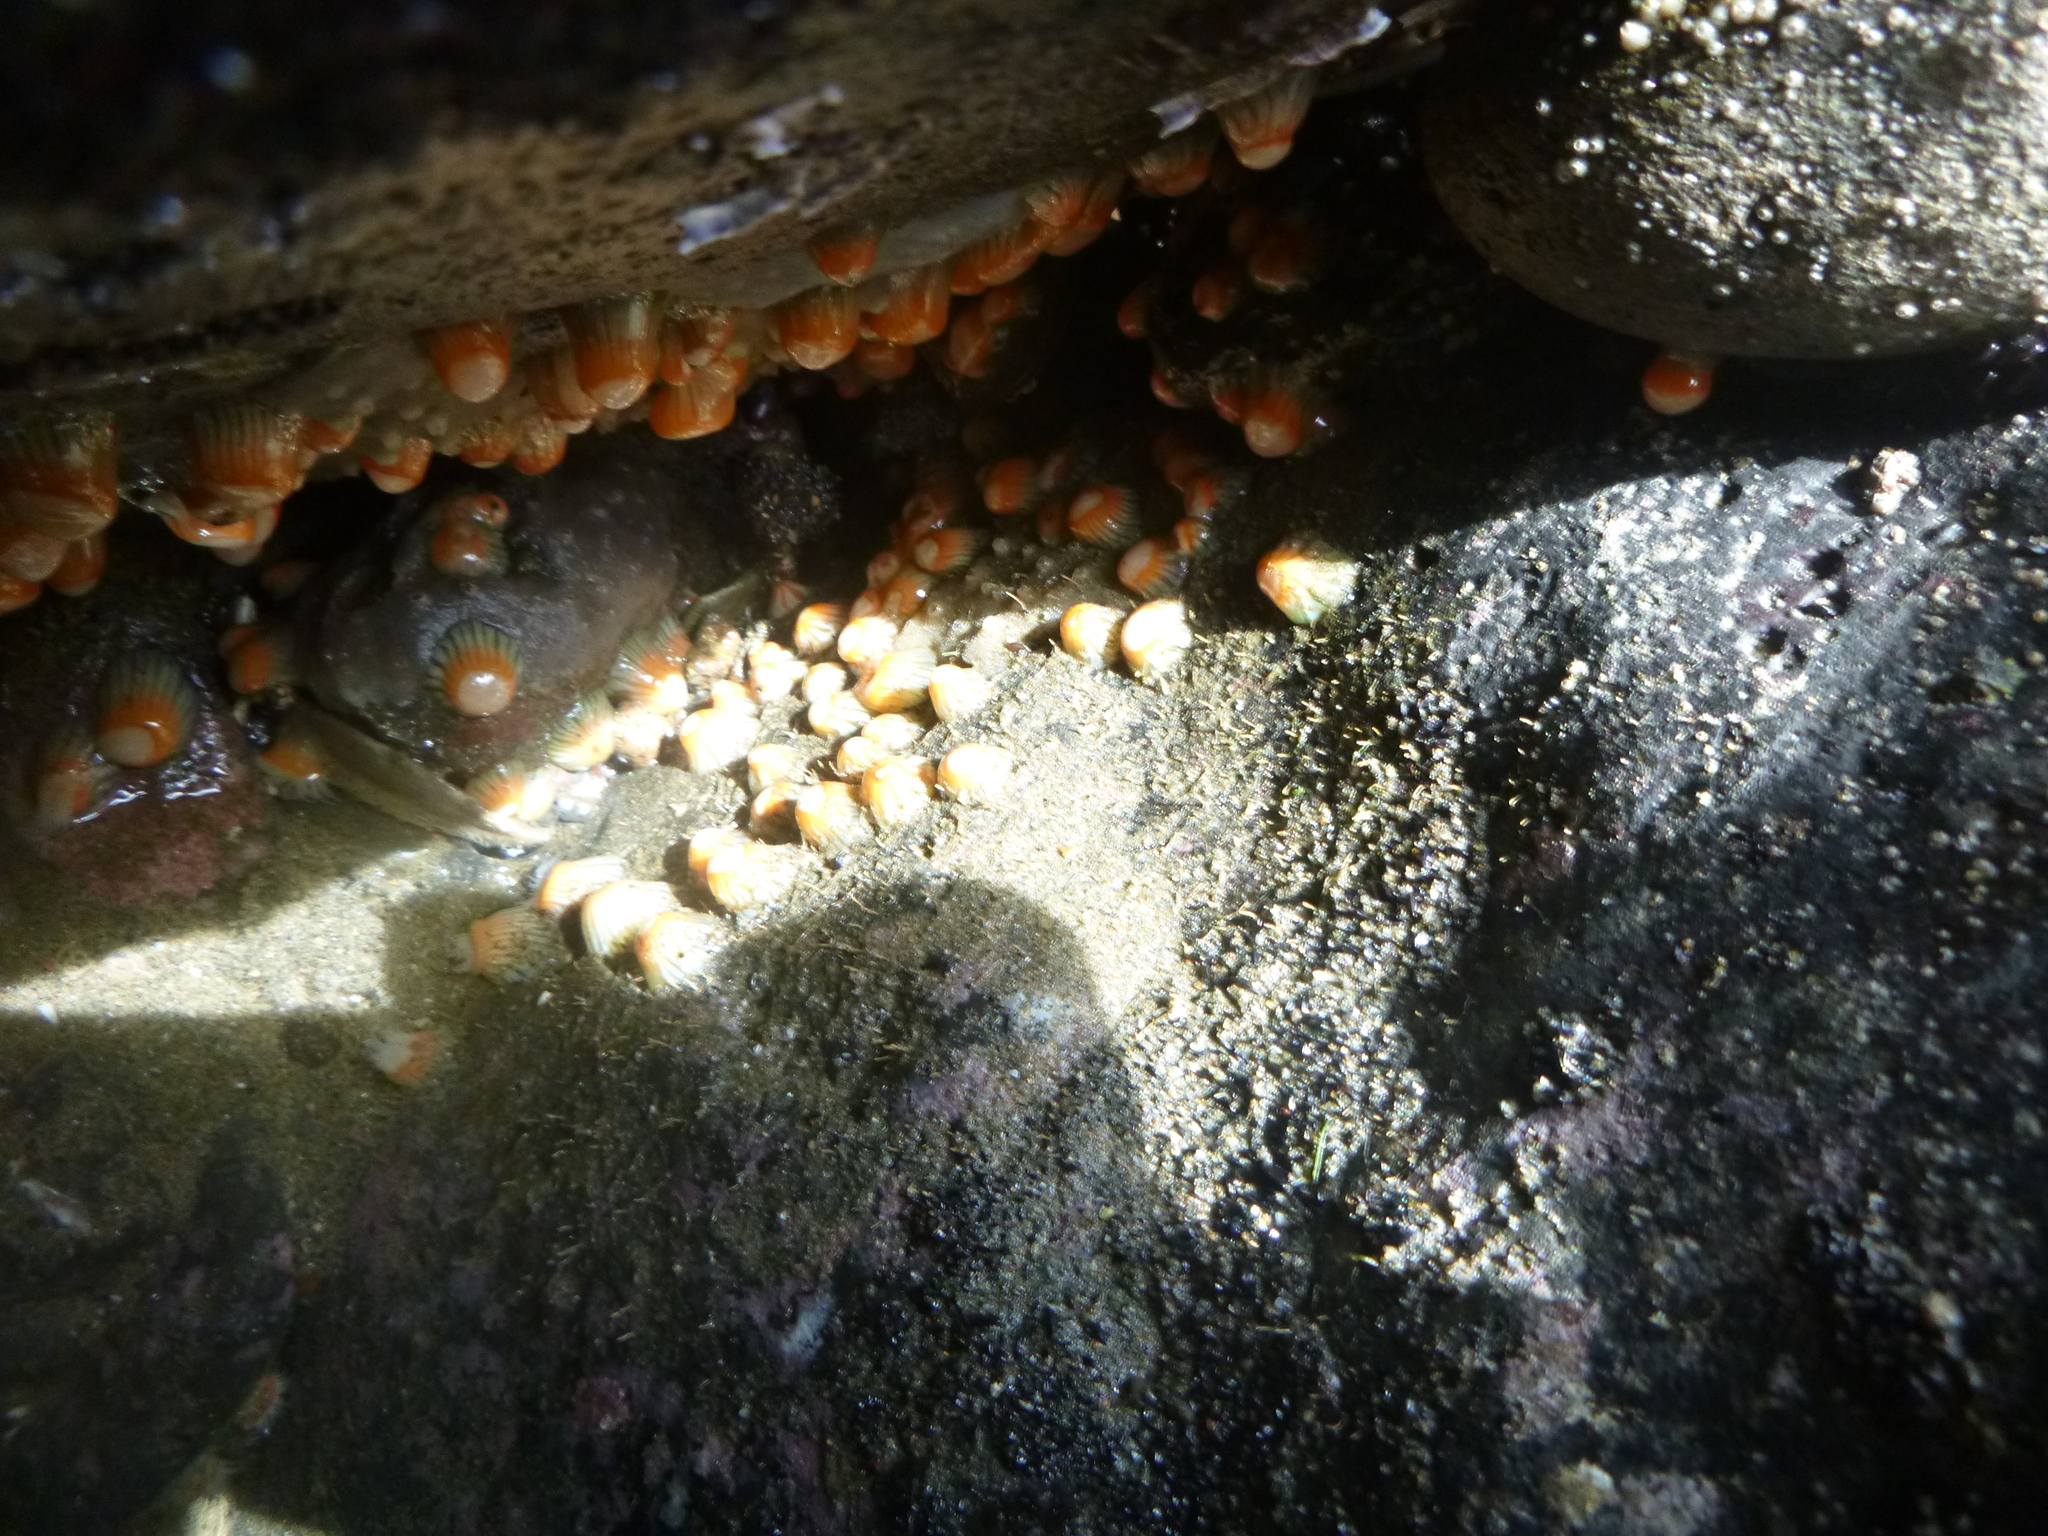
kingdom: Animalia
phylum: Cnidaria
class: Anthozoa
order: Actiniaria
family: Sagartiidae
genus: Anthothoe
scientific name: Anthothoe albocincta
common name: Orange striped anemone
